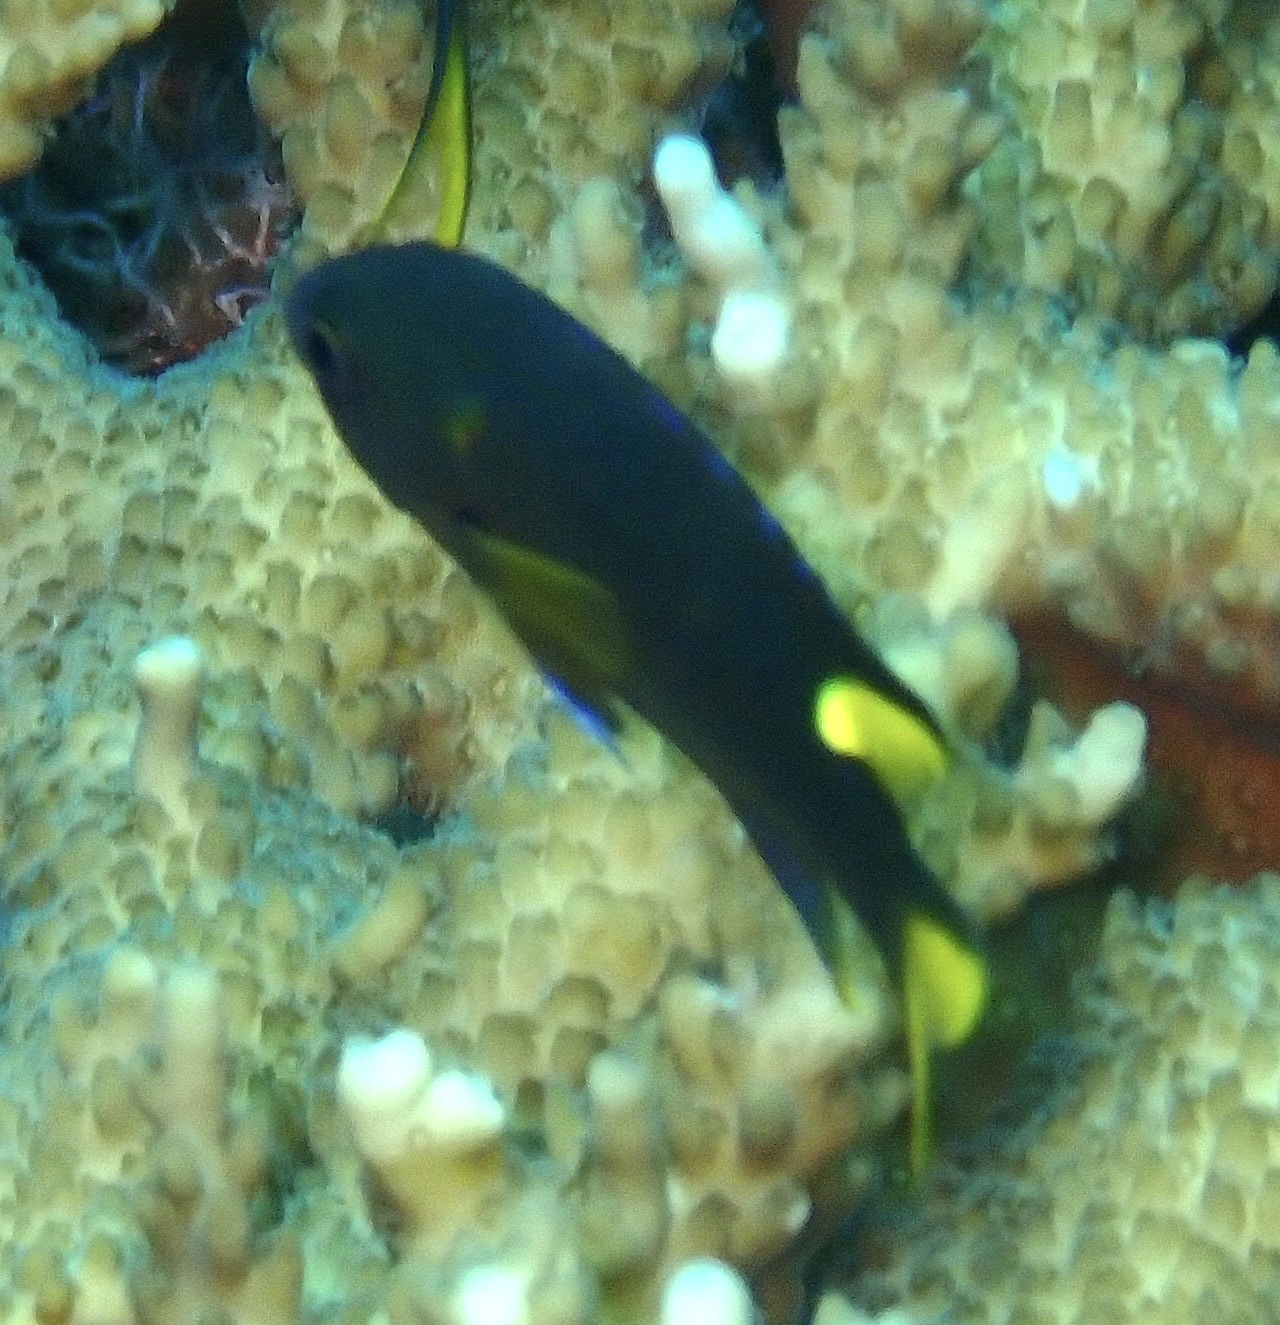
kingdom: Animalia
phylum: Chordata
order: Perciformes
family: Pomacentridae
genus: Neopomacentrus
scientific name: Neopomacentrus cyanomos
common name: Regal demoiselle
